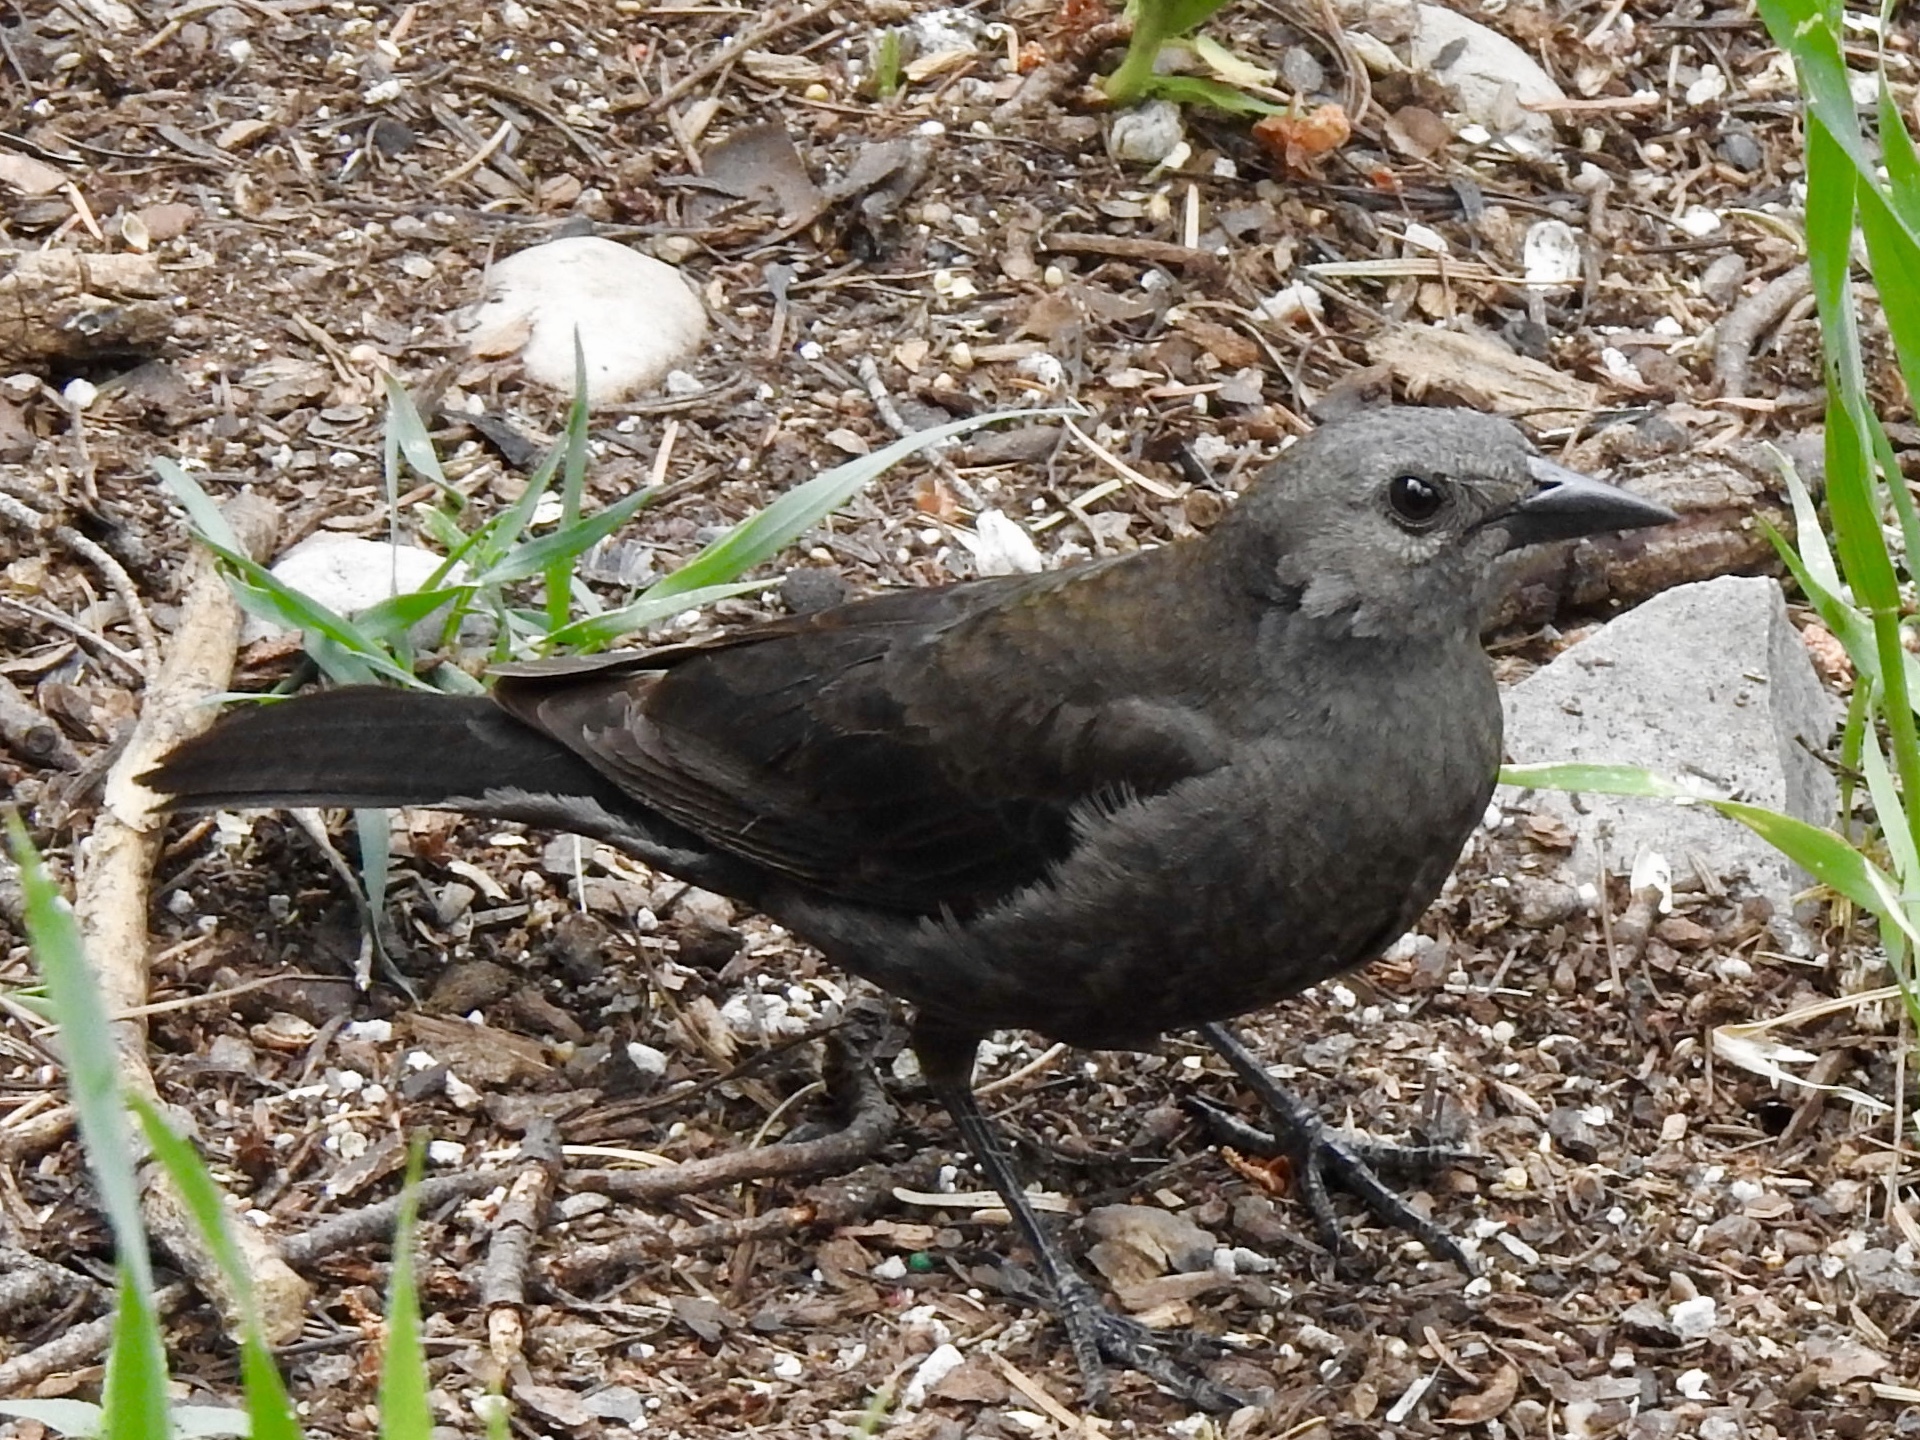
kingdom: Animalia
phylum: Chordata
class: Aves
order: Passeriformes
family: Icteridae
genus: Euphagus
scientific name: Euphagus cyanocephalus
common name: Brewer's blackbird
